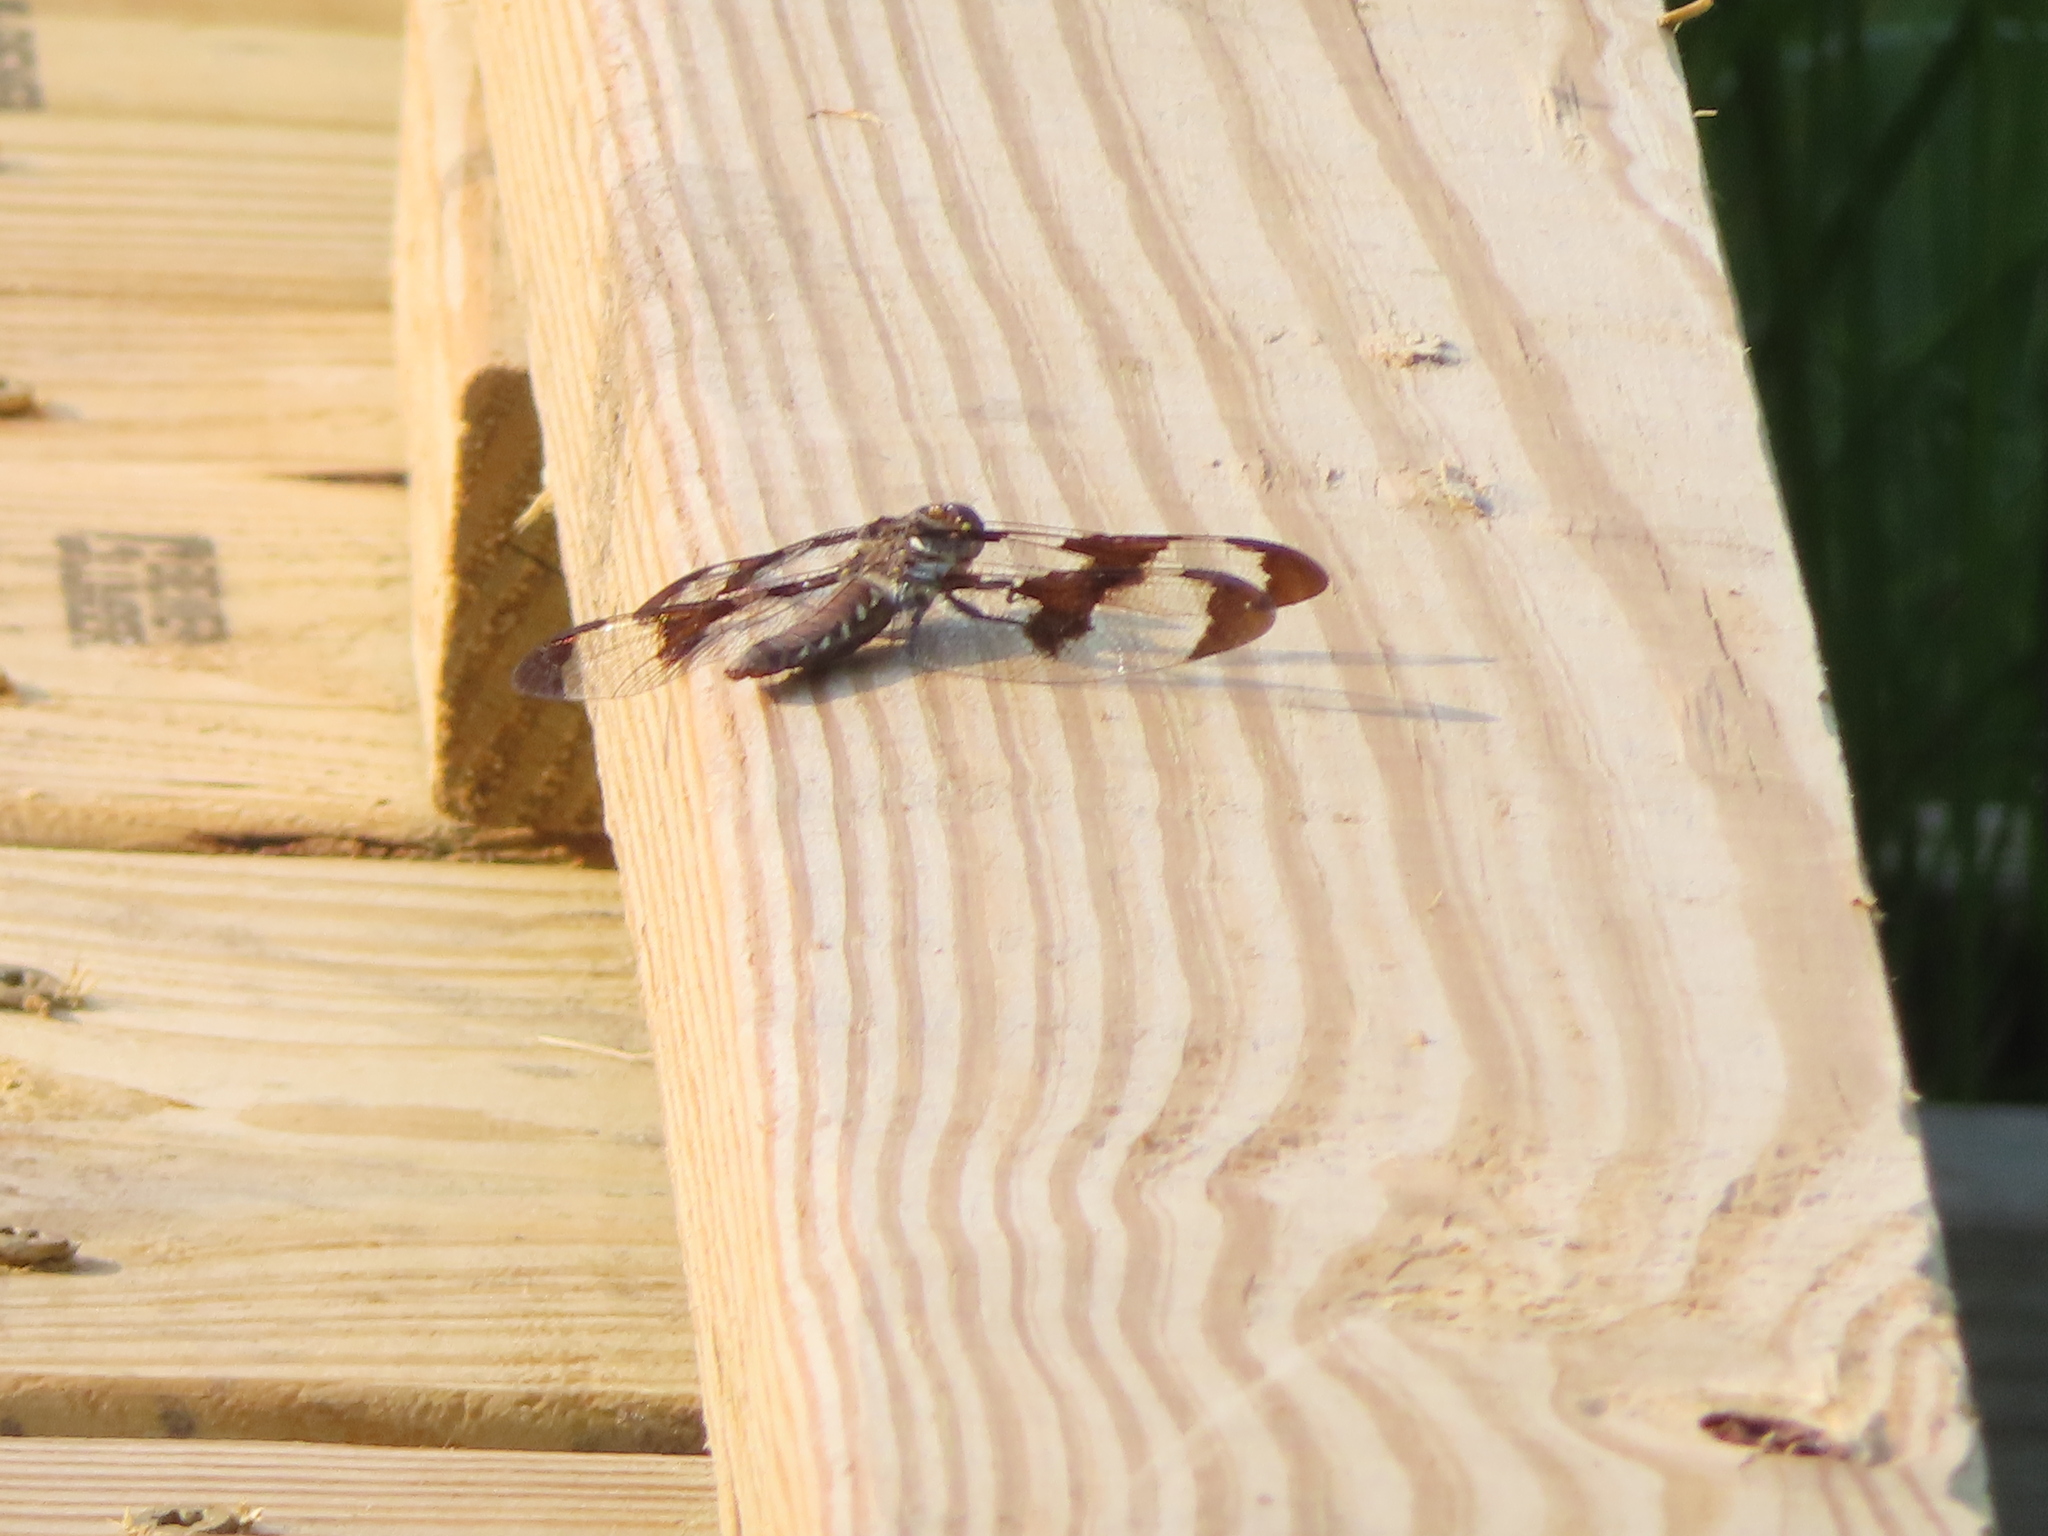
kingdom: Animalia
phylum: Arthropoda
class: Insecta
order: Odonata
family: Libellulidae
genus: Plathemis
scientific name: Plathemis lydia
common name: Common whitetail
